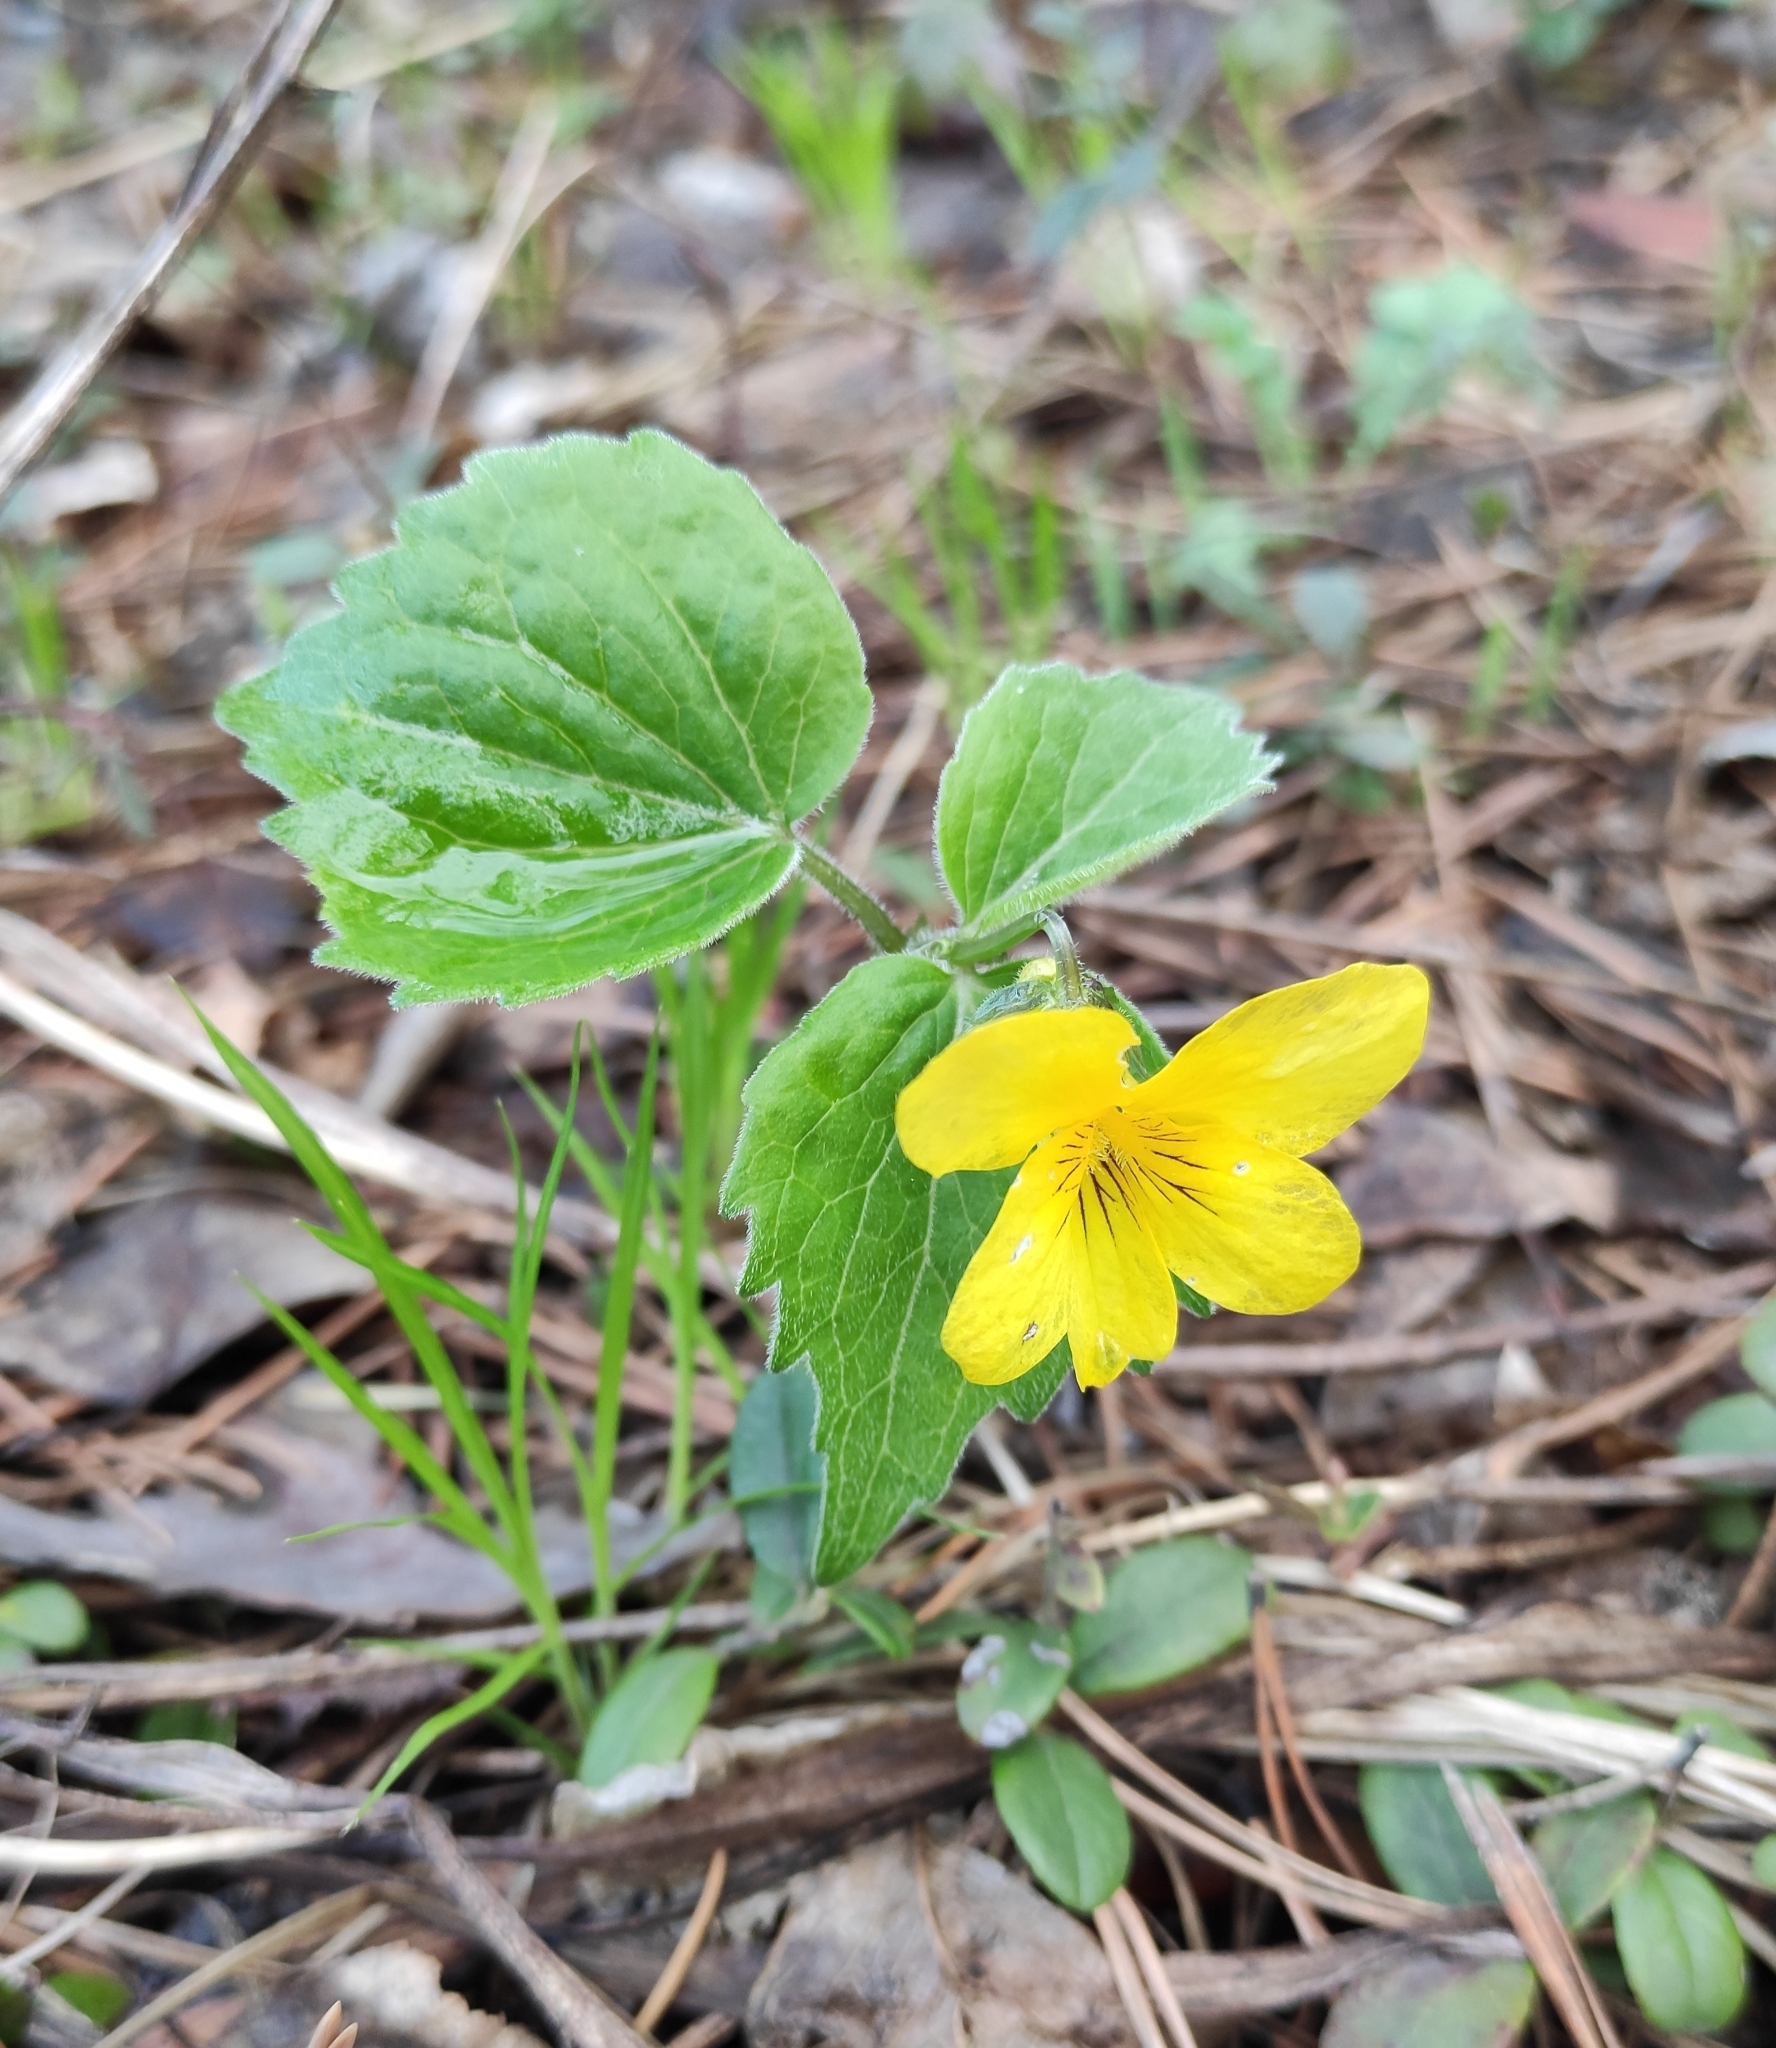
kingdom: Plantae
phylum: Tracheophyta
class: Magnoliopsida
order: Malpighiales
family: Violaceae
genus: Viola
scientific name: Viola uniflora
